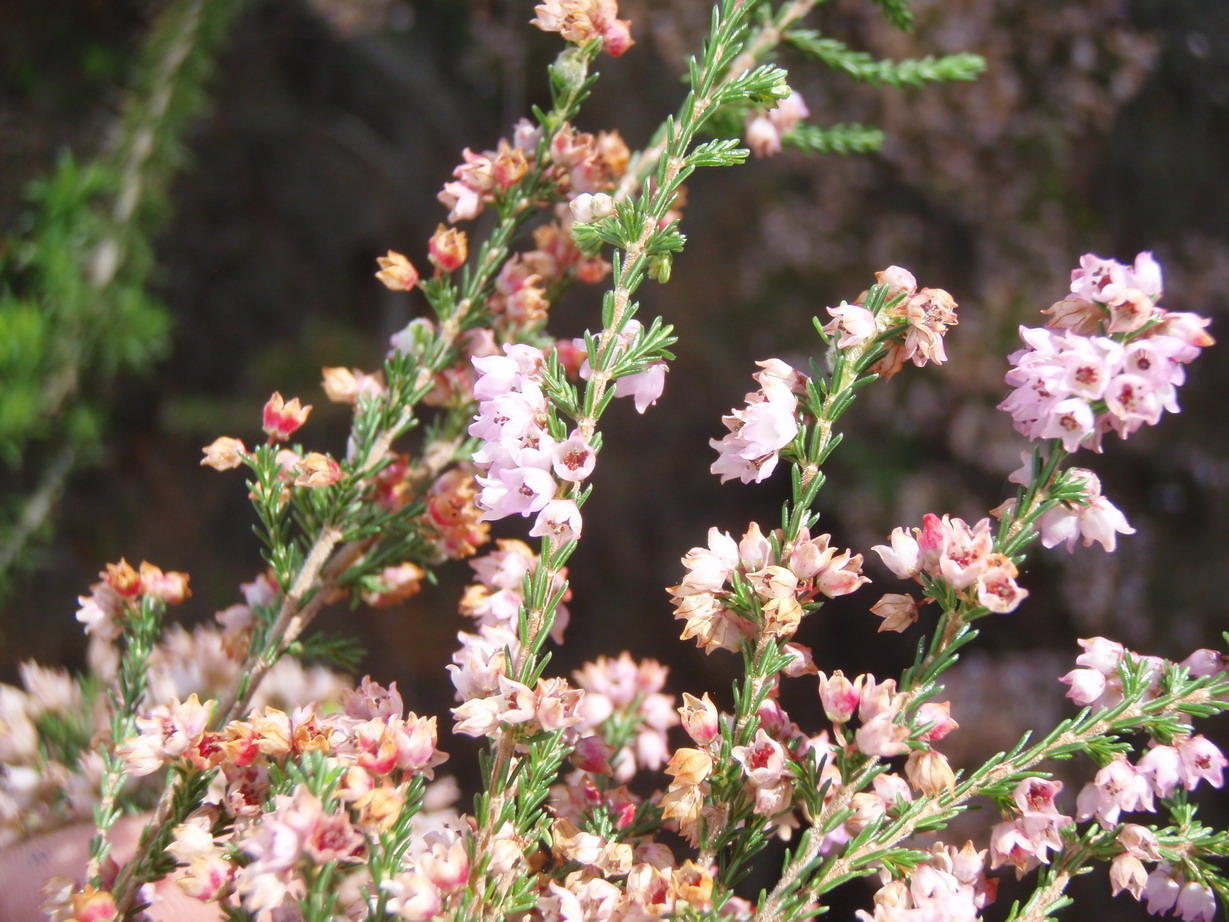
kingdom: Plantae
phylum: Tracheophyta
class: Magnoliopsida
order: Ericales
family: Ericaceae
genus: Erica
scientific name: Erica quadrangularis
